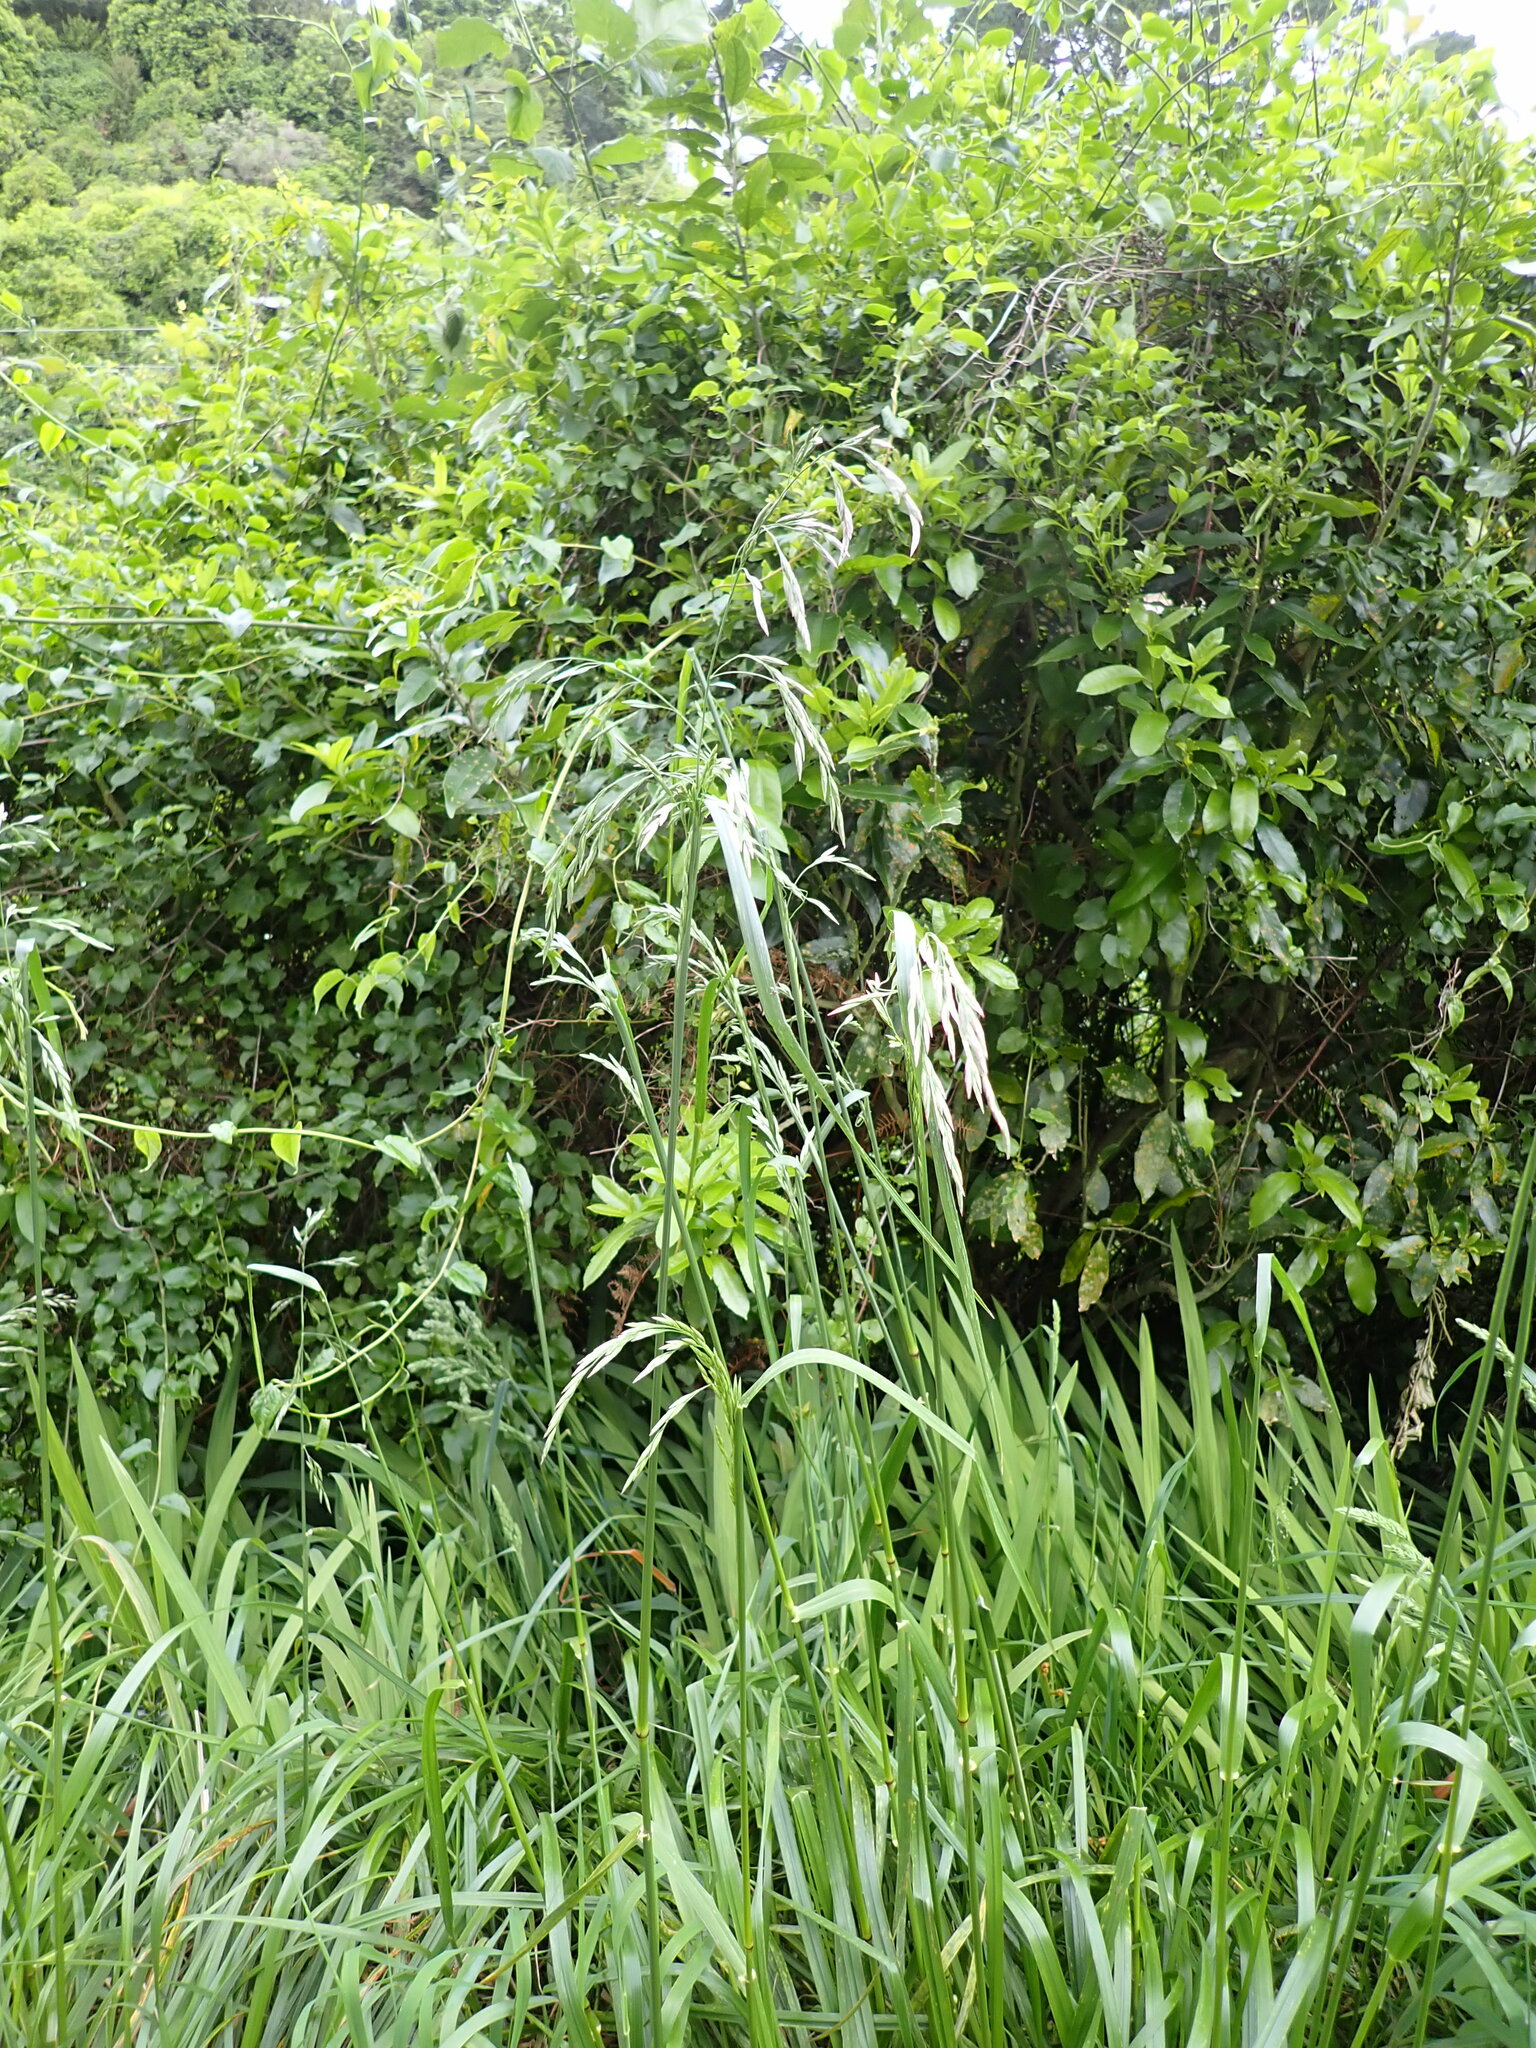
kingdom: Plantae
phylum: Tracheophyta
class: Liliopsida
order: Poales
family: Poaceae
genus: Lolium
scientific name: Lolium arundinaceum
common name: Reed fescue
